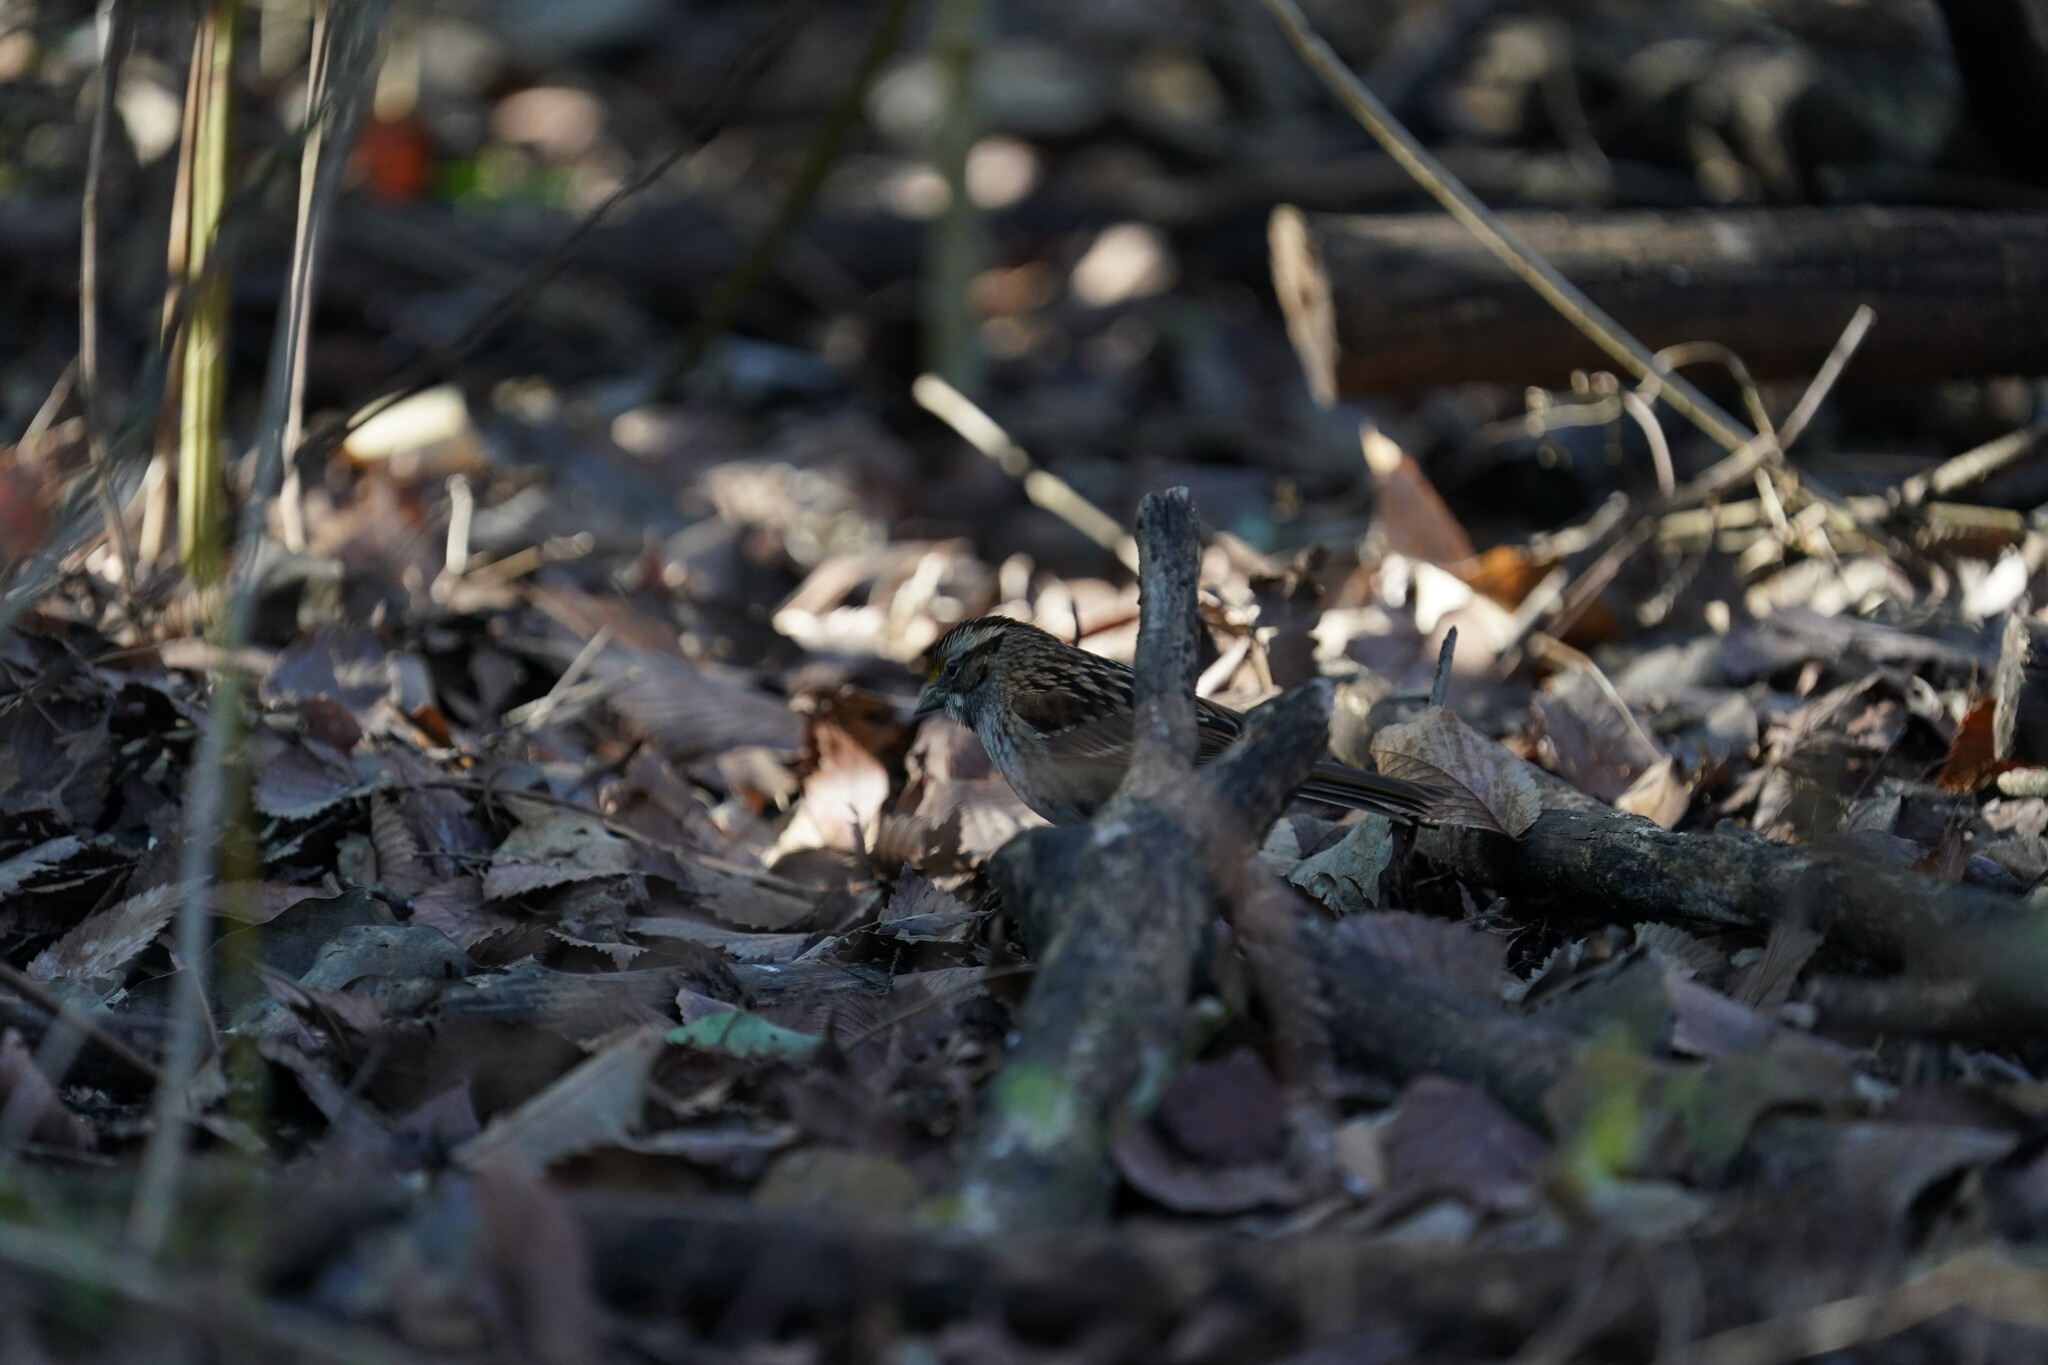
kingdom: Animalia
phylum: Chordata
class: Aves
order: Passeriformes
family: Passerellidae
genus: Zonotrichia
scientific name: Zonotrichia albicollis
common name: White-throated sparrow
